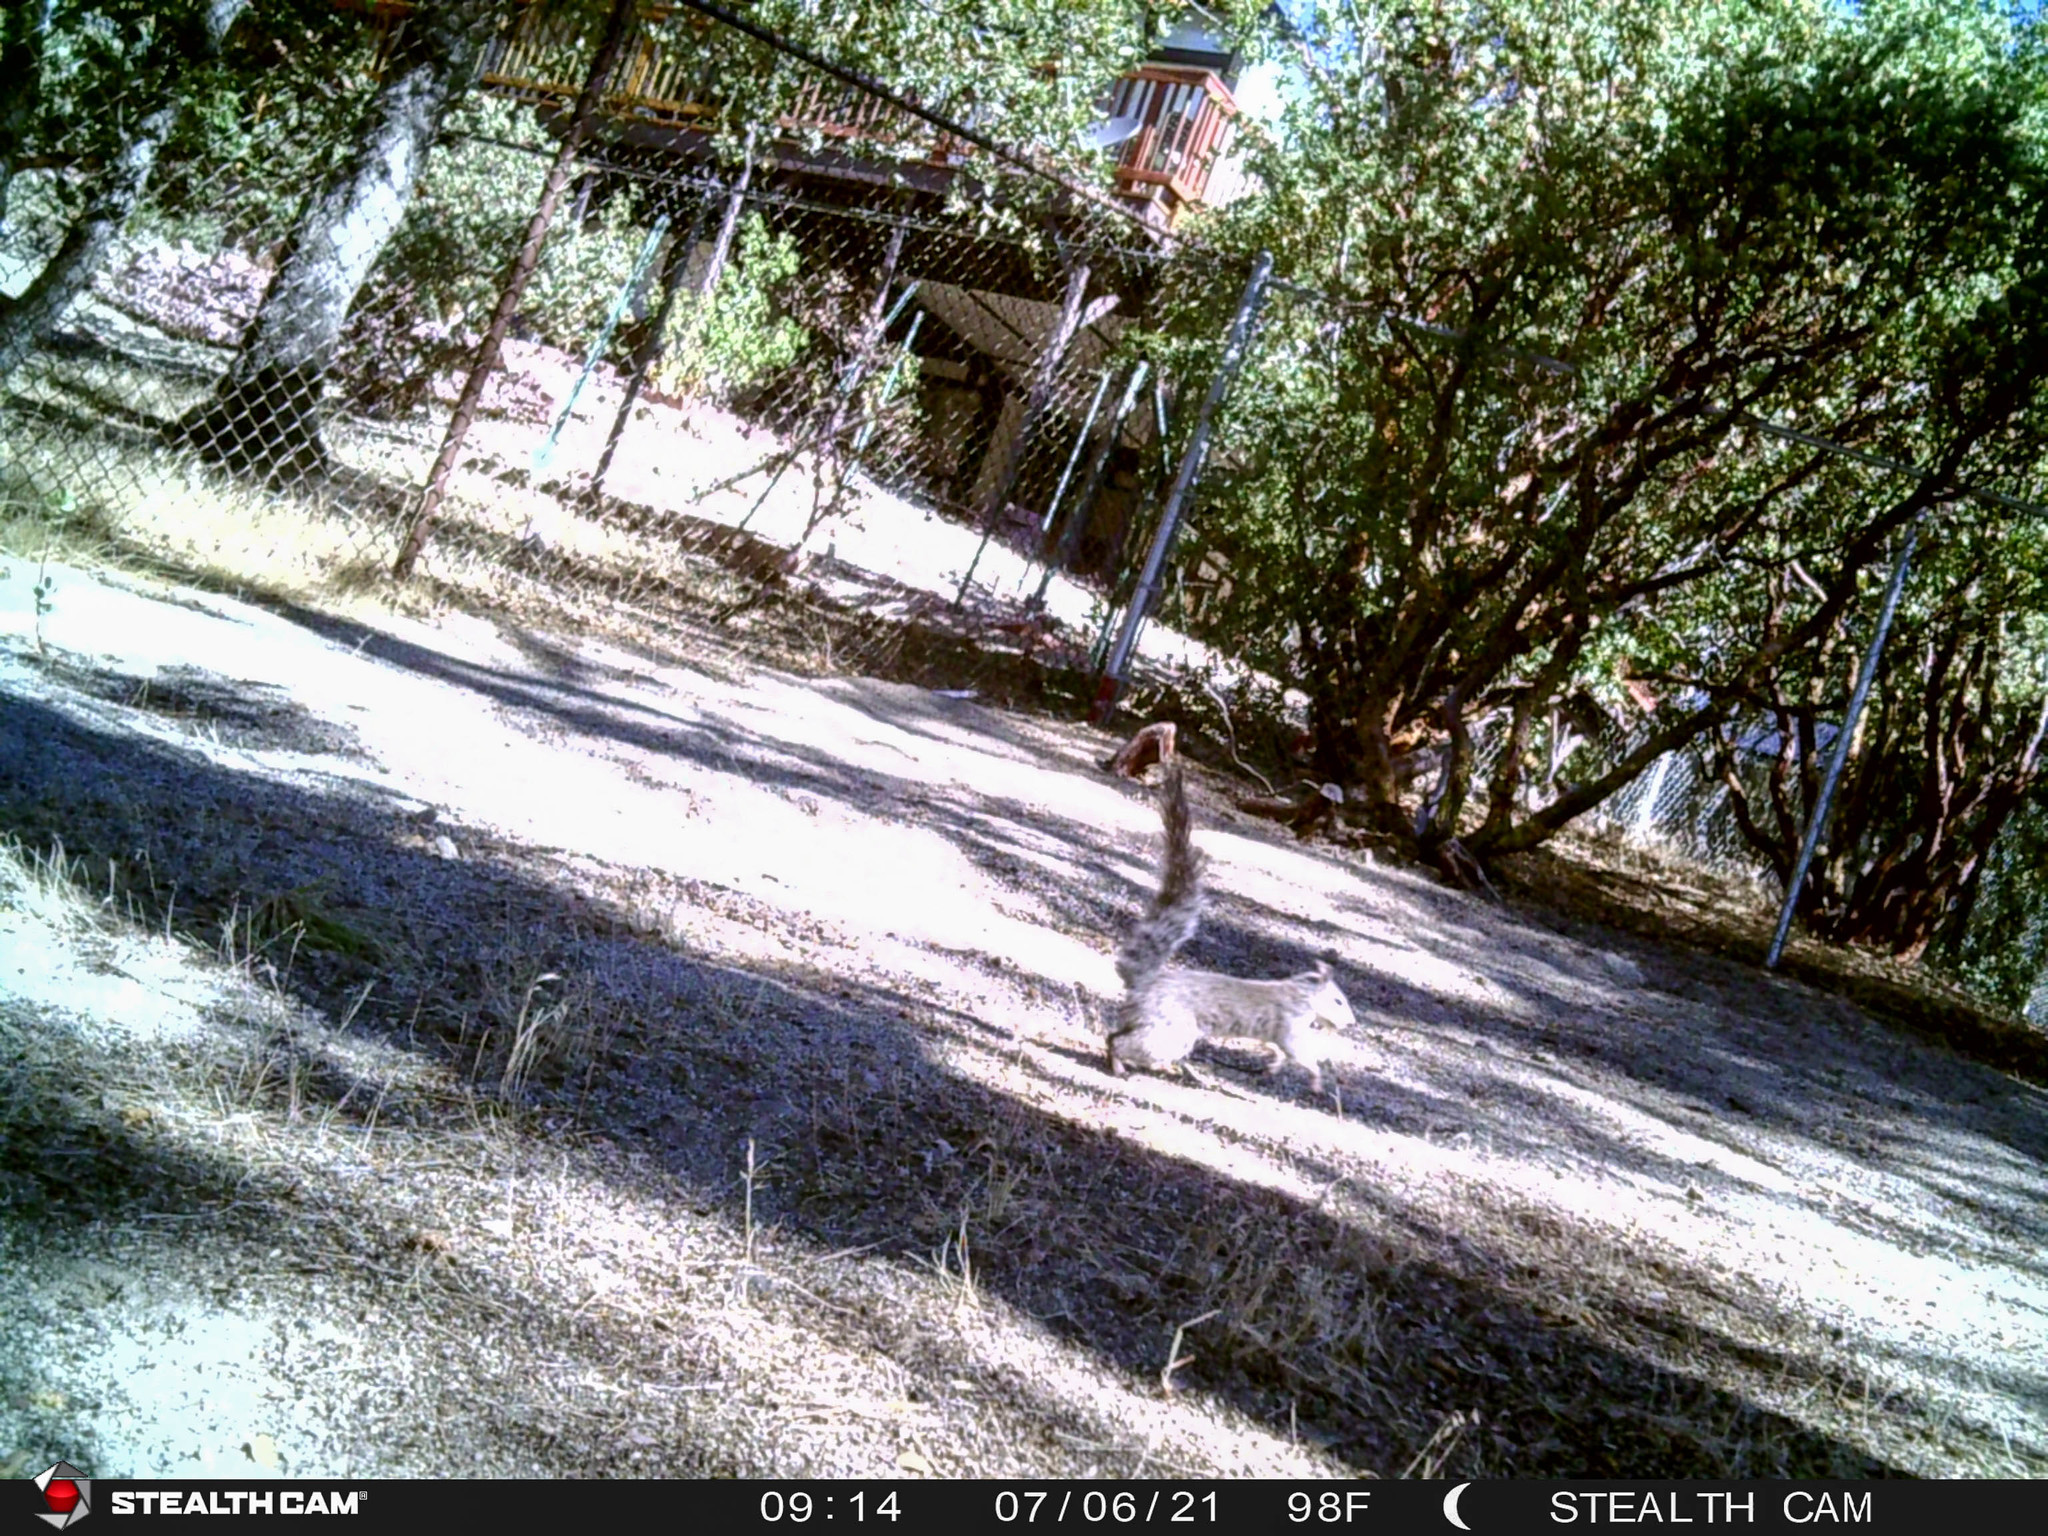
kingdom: Animalia
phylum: Chordata
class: Mammalia
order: Rodentia
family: Sciuridae
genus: Sciurus
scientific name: Sciurus griseus
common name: Western gray squirrel
